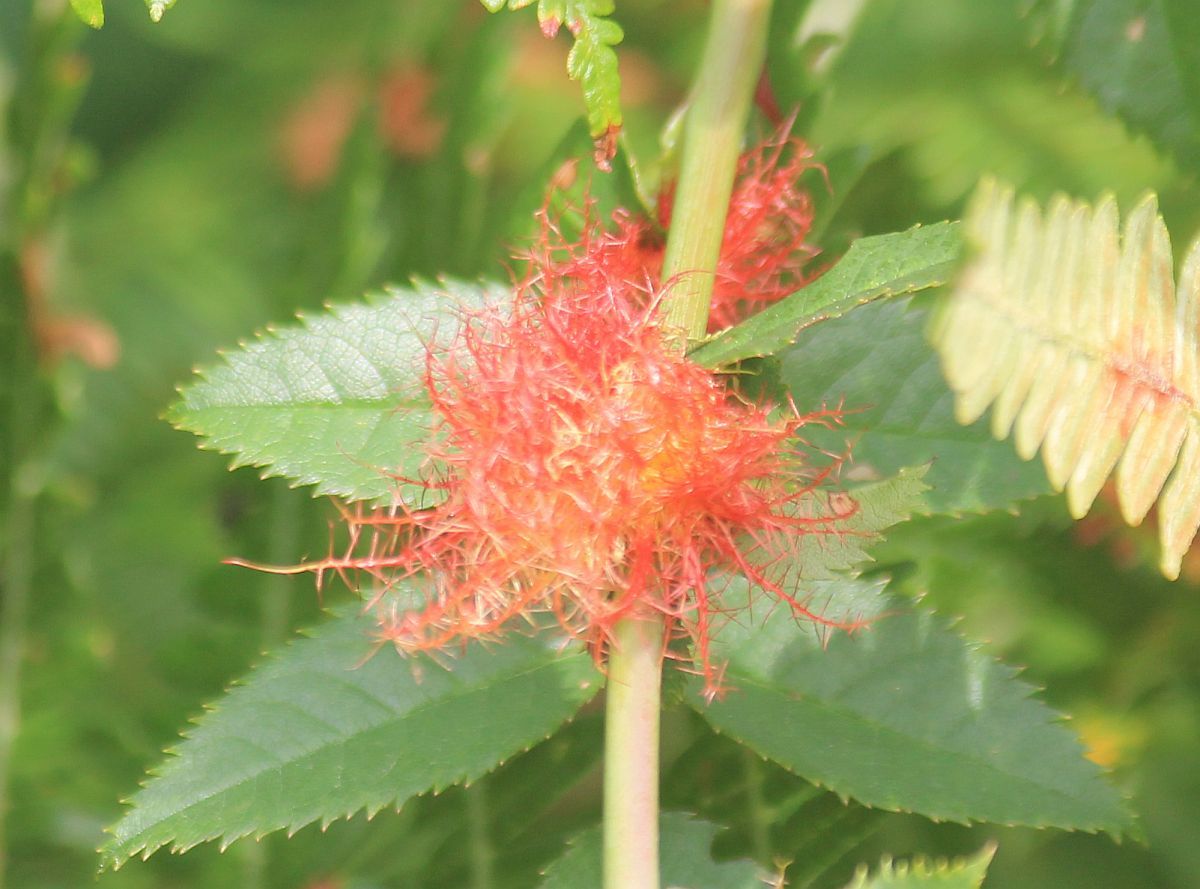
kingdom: Animalia
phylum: Arthropoda
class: Insecta
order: Hymenoptera
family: Cynipidae
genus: Diplolepis
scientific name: Diplolepis rosae
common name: Bedeguar gall
